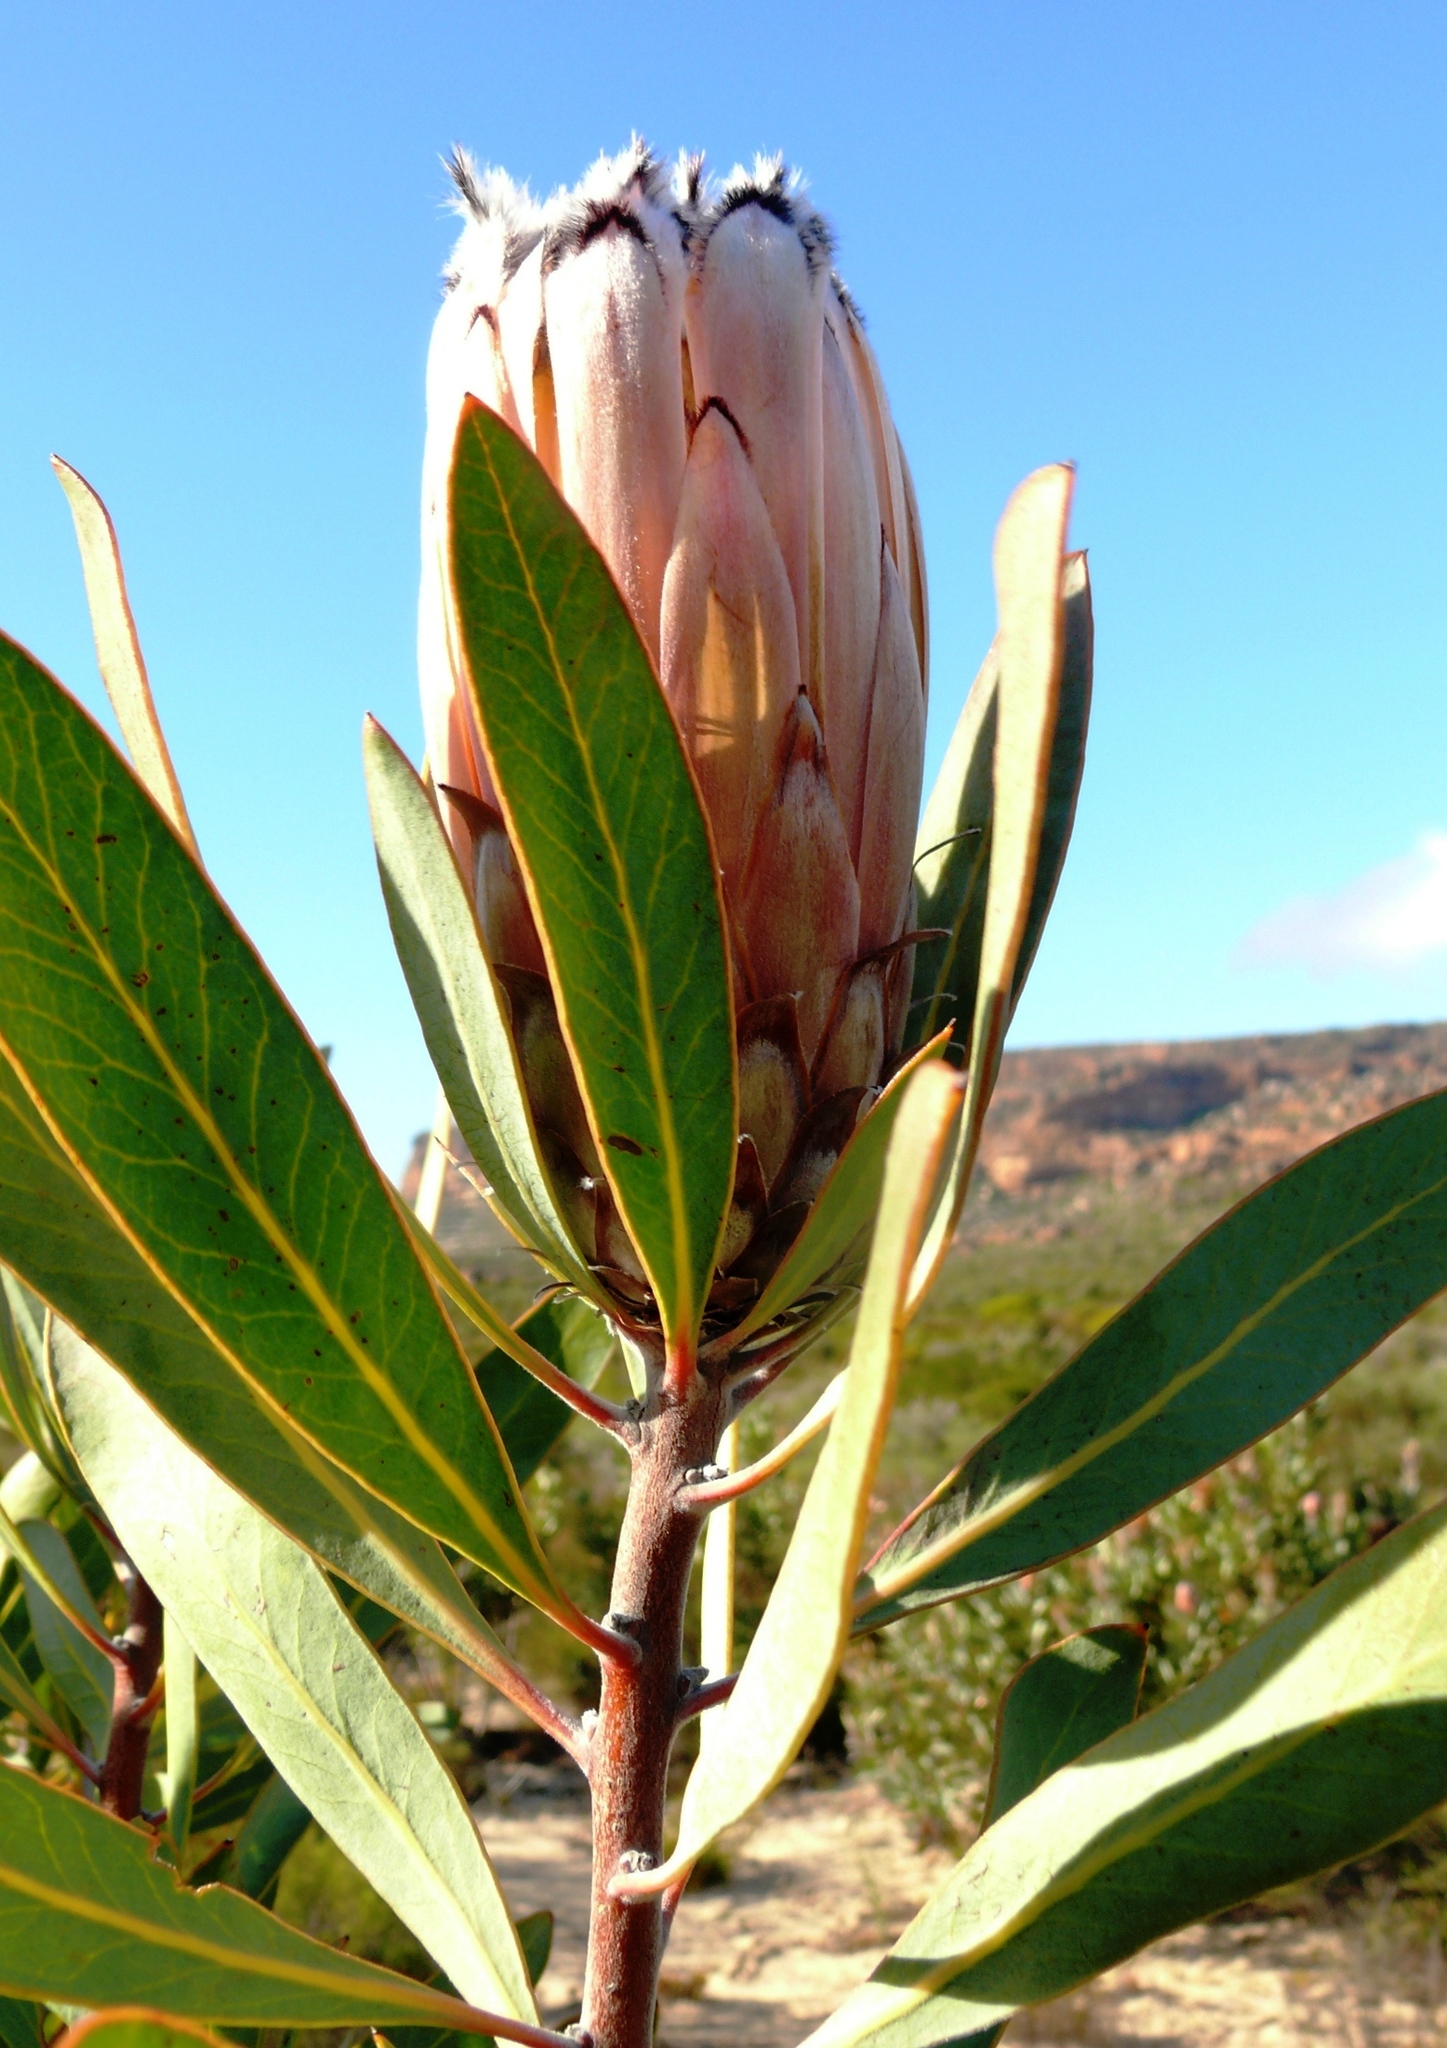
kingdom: Plantae
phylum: Tracheophyta
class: Magnoliopsida
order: Proteales
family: Proteaceae
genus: Protea
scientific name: Protea laurifolia
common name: Grey-leaf sugarbsh
